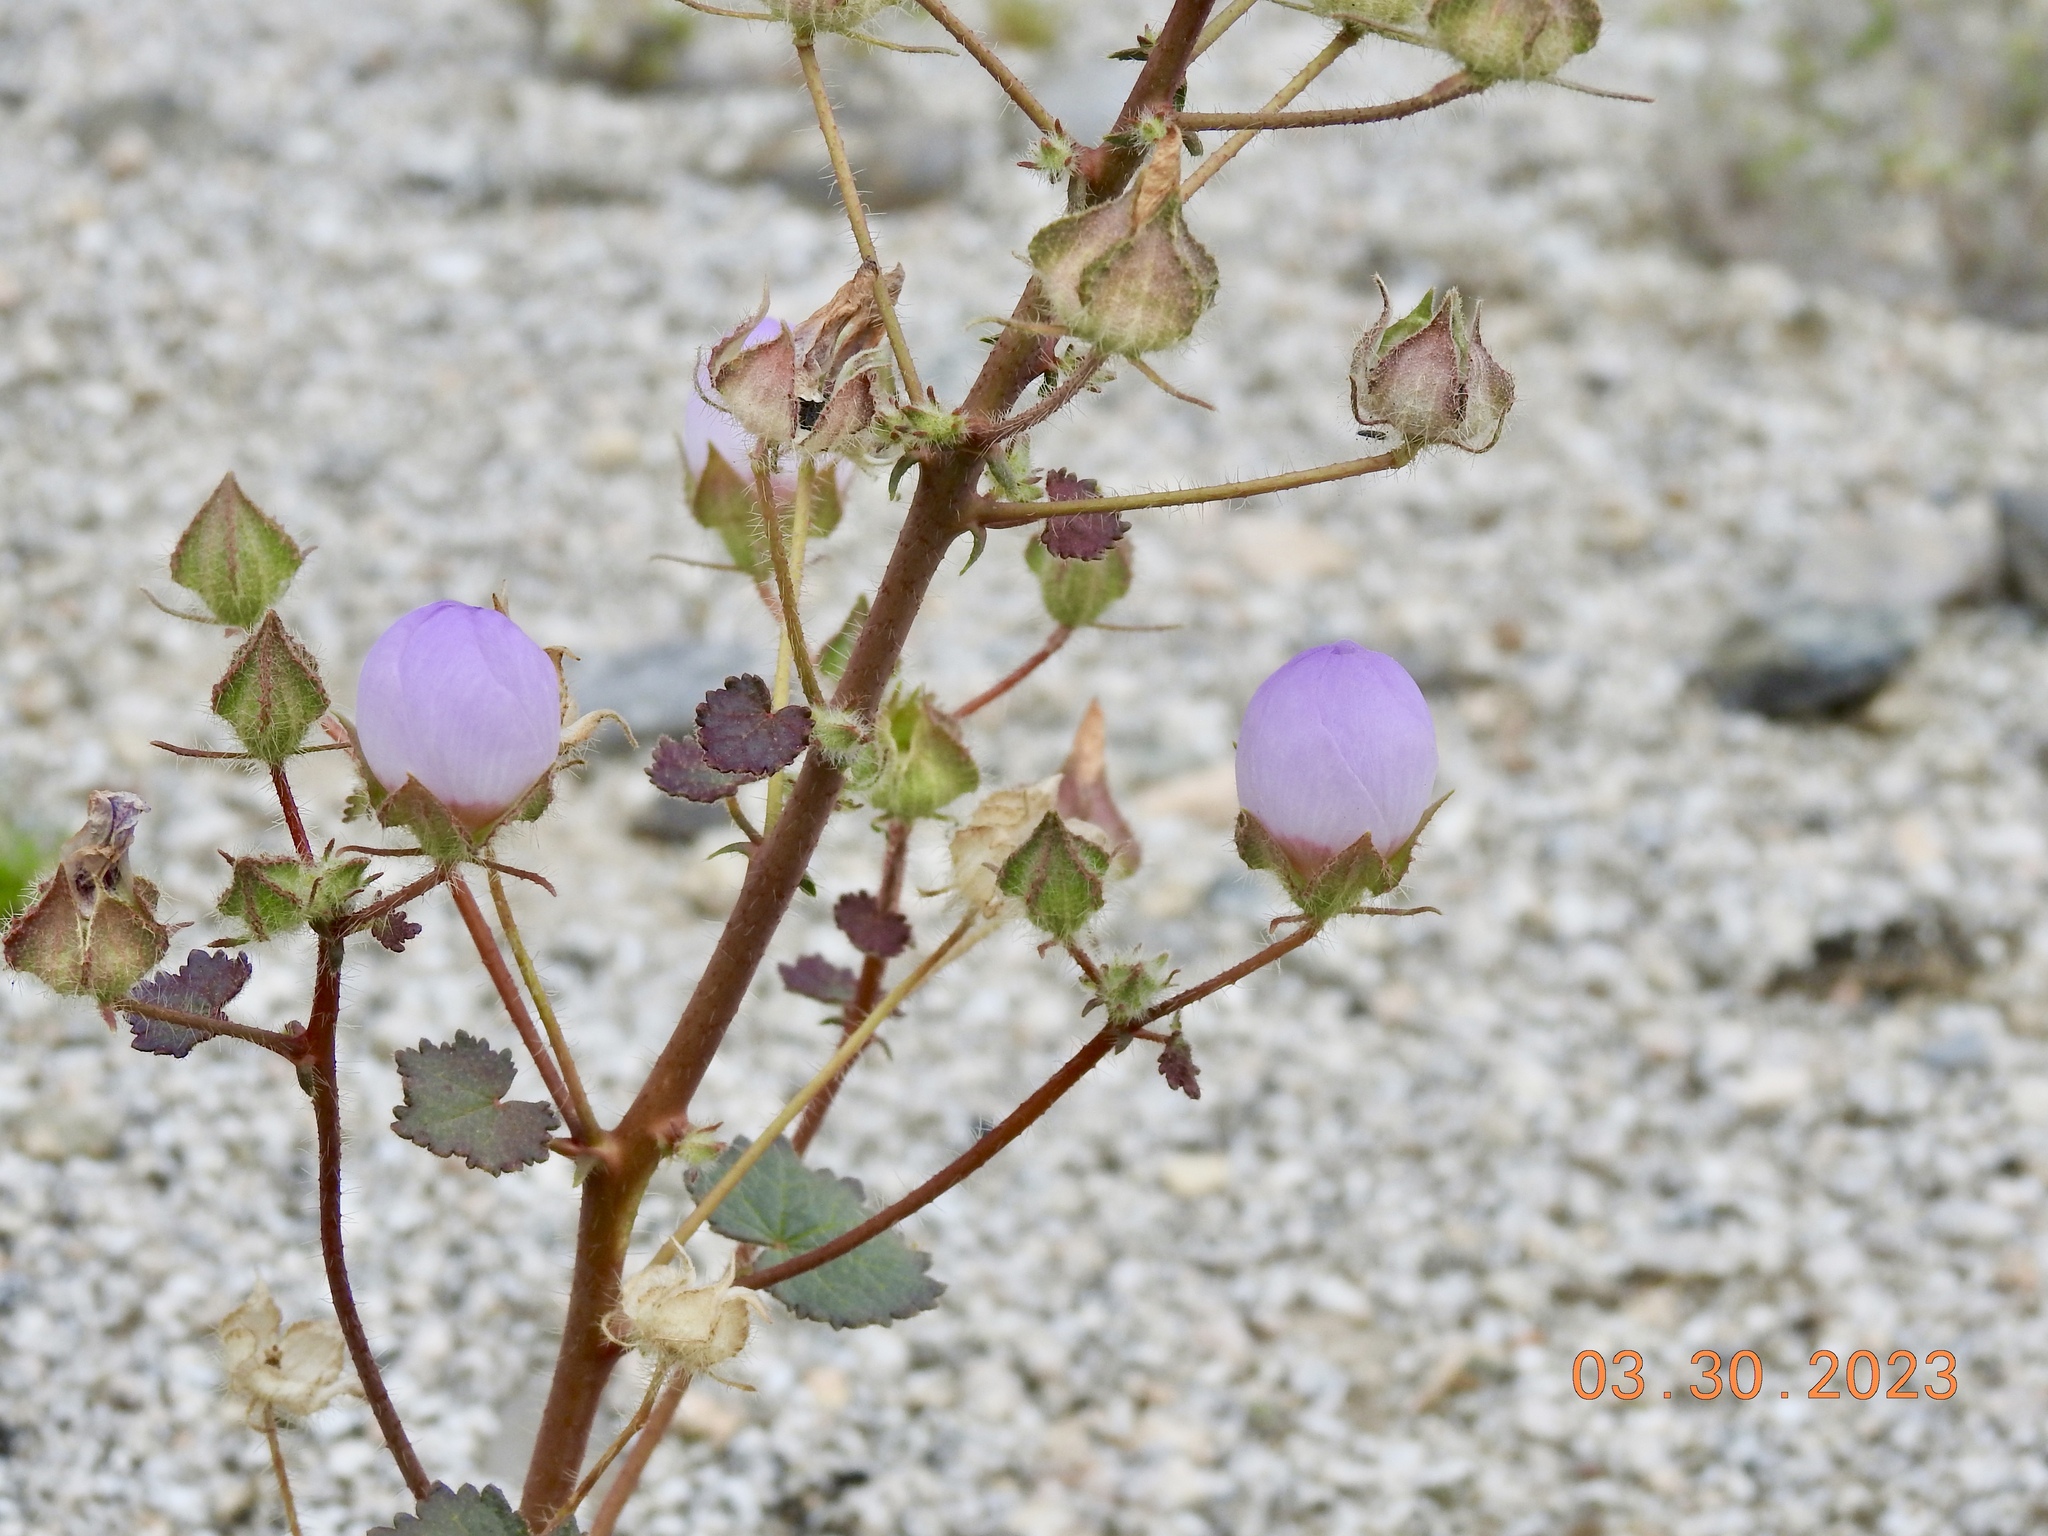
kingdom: Plantae
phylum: Tracheophyta
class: Magnoliopsida
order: Malvales
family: Malvaceae
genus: Eremalche
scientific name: Eremalche rotundifolia
